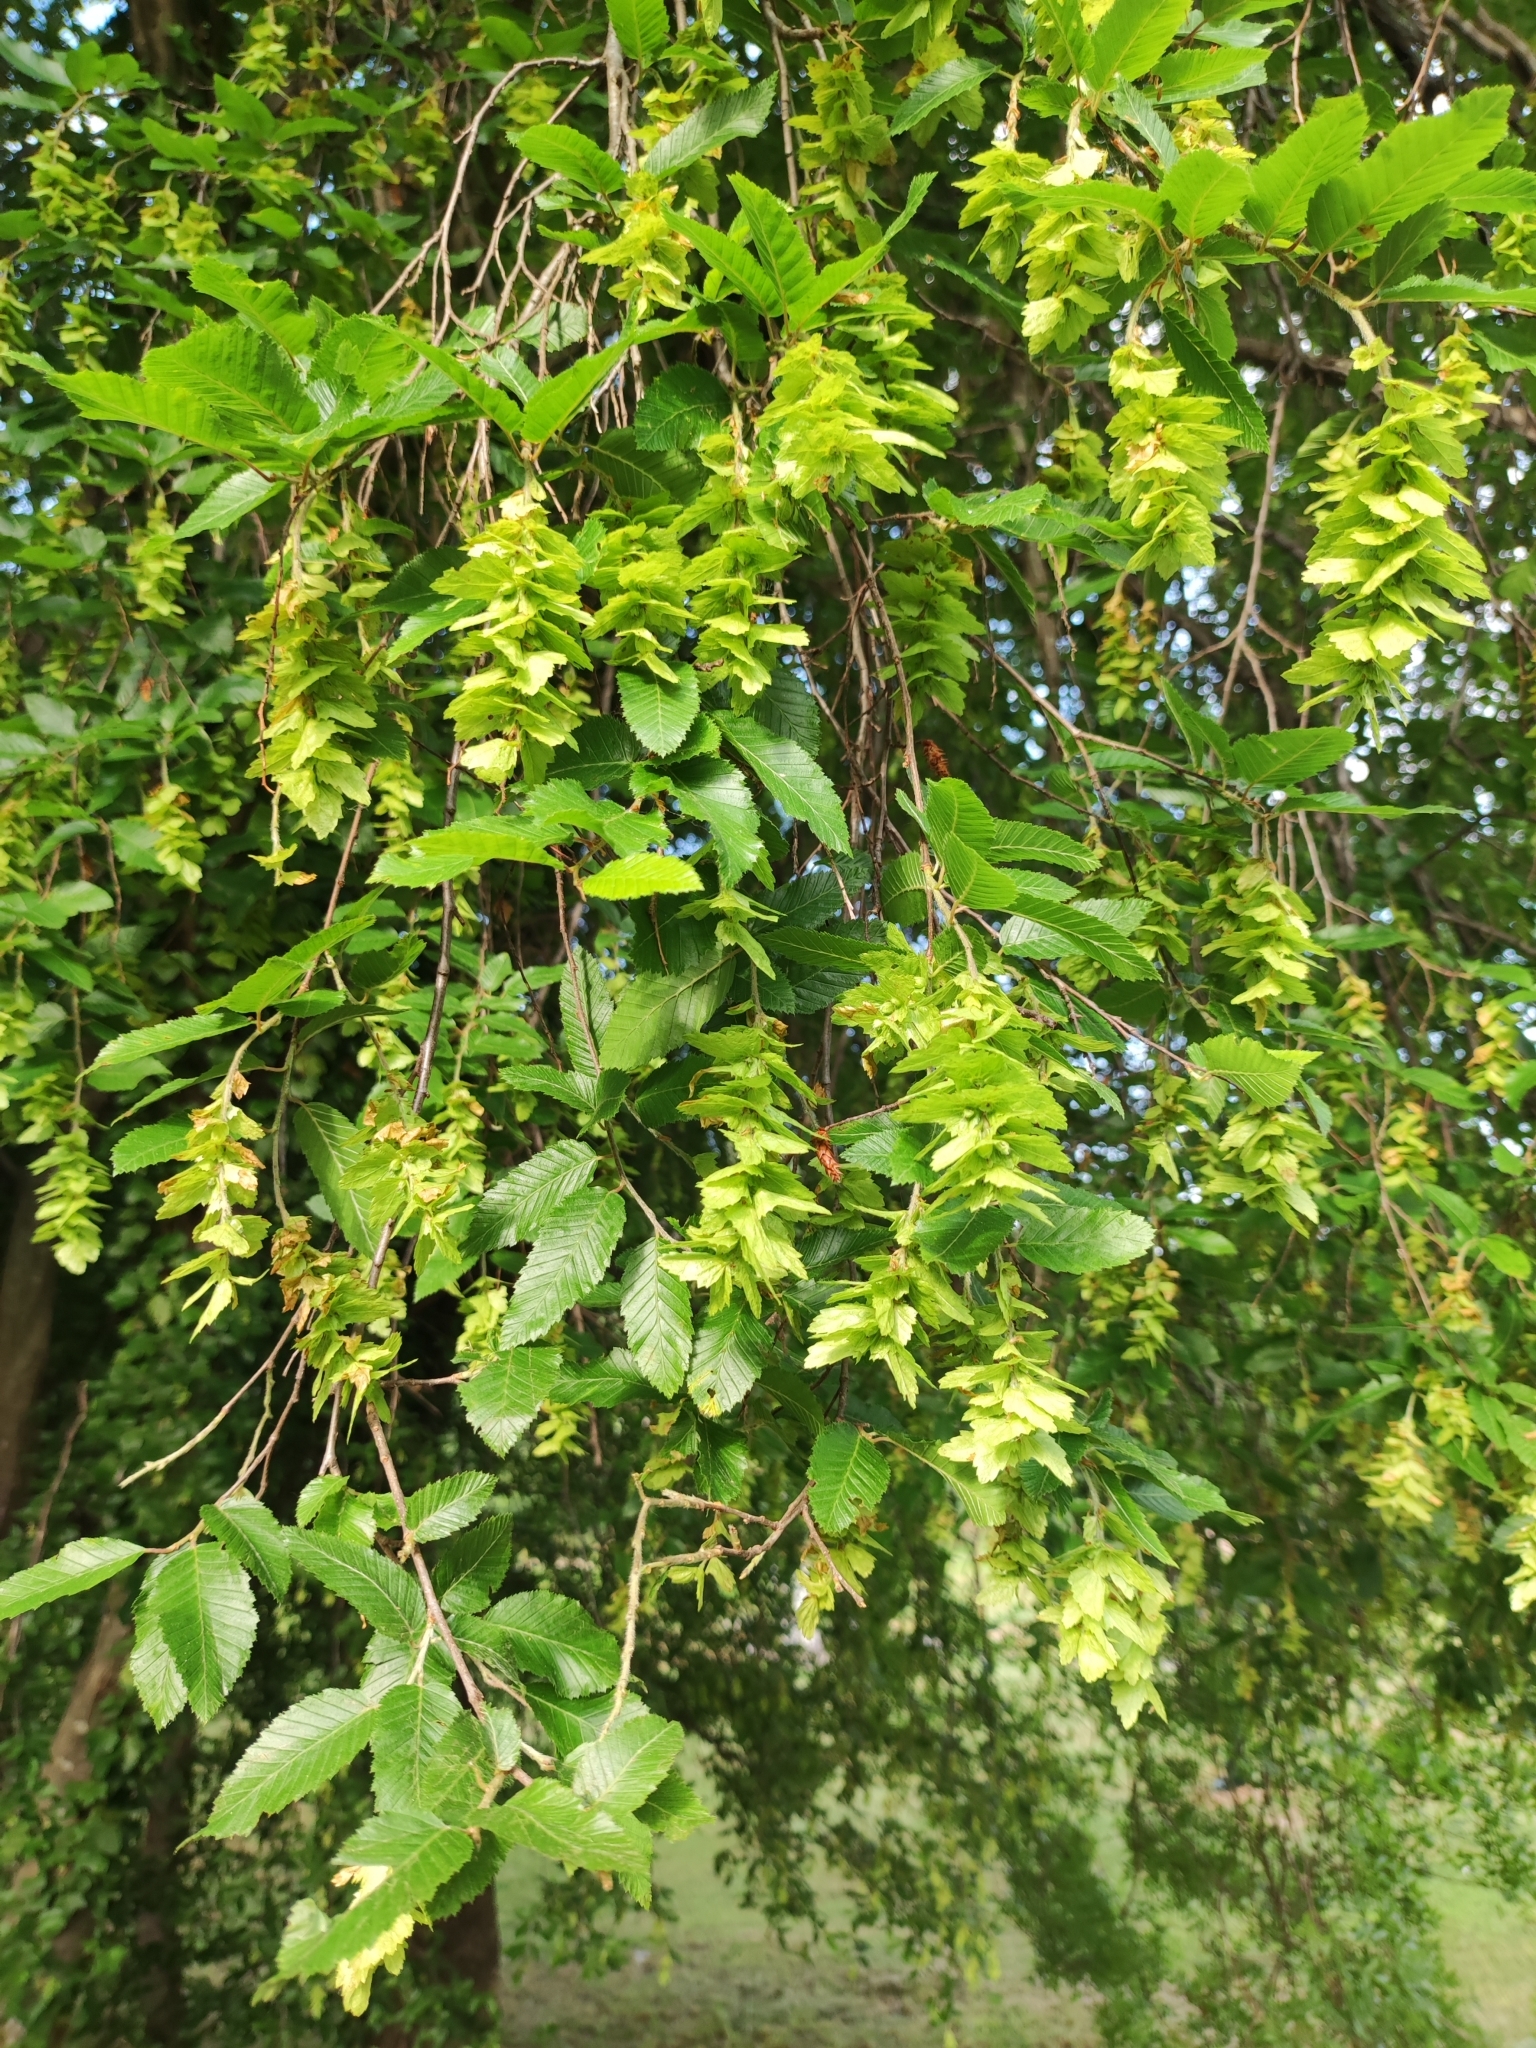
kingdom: Plantae
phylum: Tracheophyta
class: Magnoliopsida
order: Fagales
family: Betulaceae
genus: Carpinus
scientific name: Carpinus orientalis
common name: Eastern hornbeam
